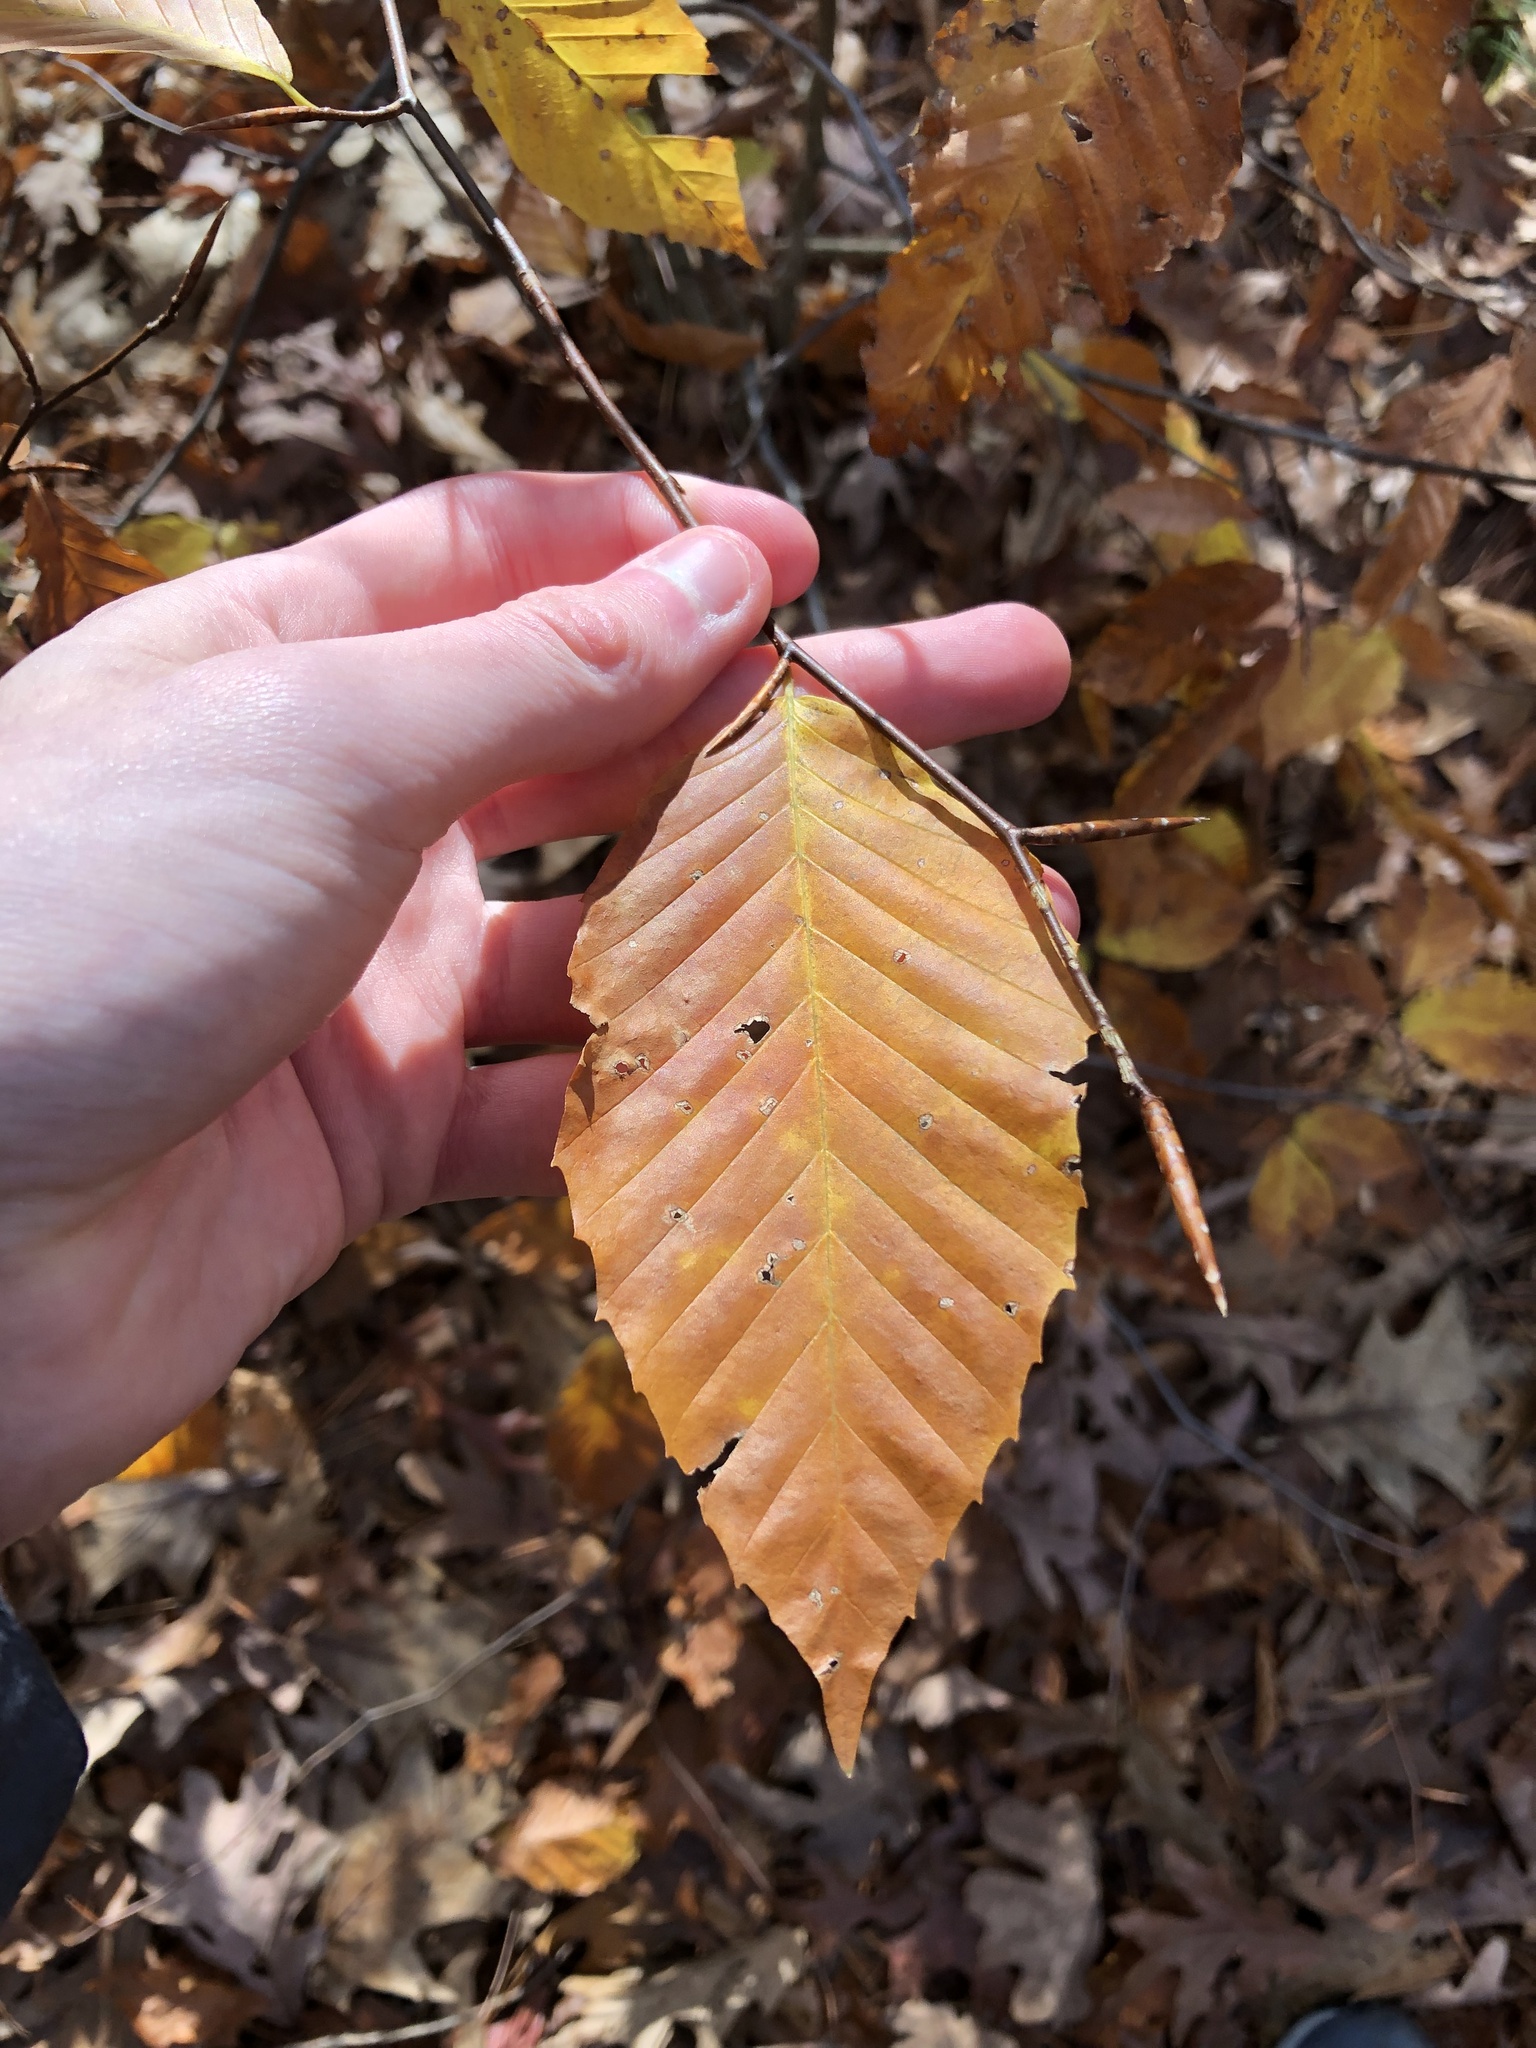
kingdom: Plantae
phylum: Tracheophyta
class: Magnoliopsida
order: Fagales
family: Fagaceae
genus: Fagus
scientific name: Fagus grandifolia
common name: American beech
